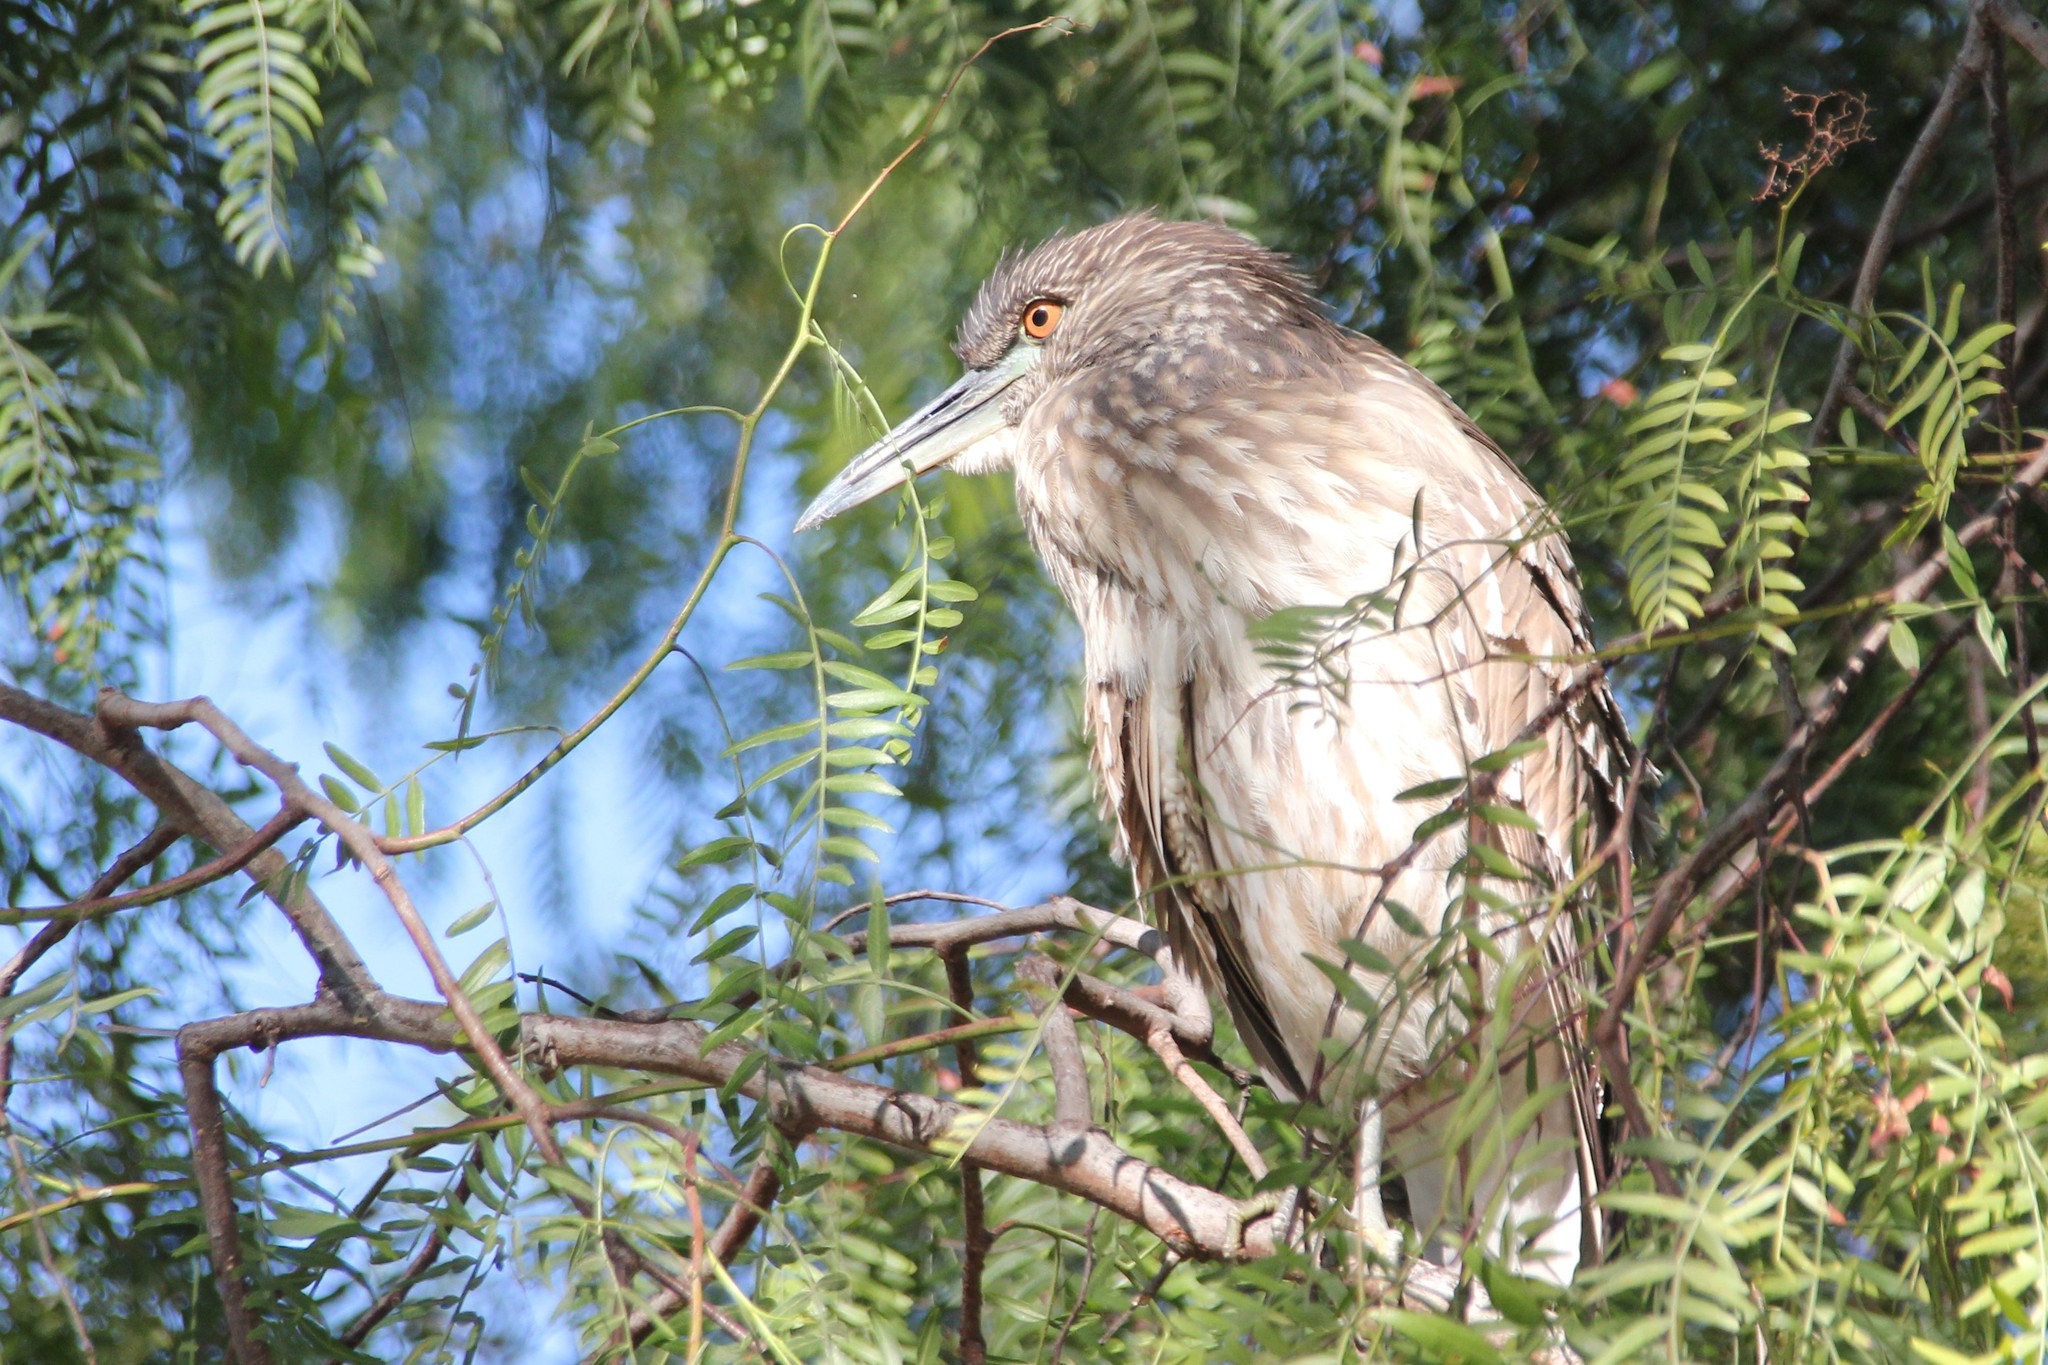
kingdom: Animalia
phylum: Chordata
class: Aves
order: Pelecaniformes
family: Ardeidae
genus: Nycticorax
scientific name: Nycticorax nycticorax
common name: Black-crowned night heron
